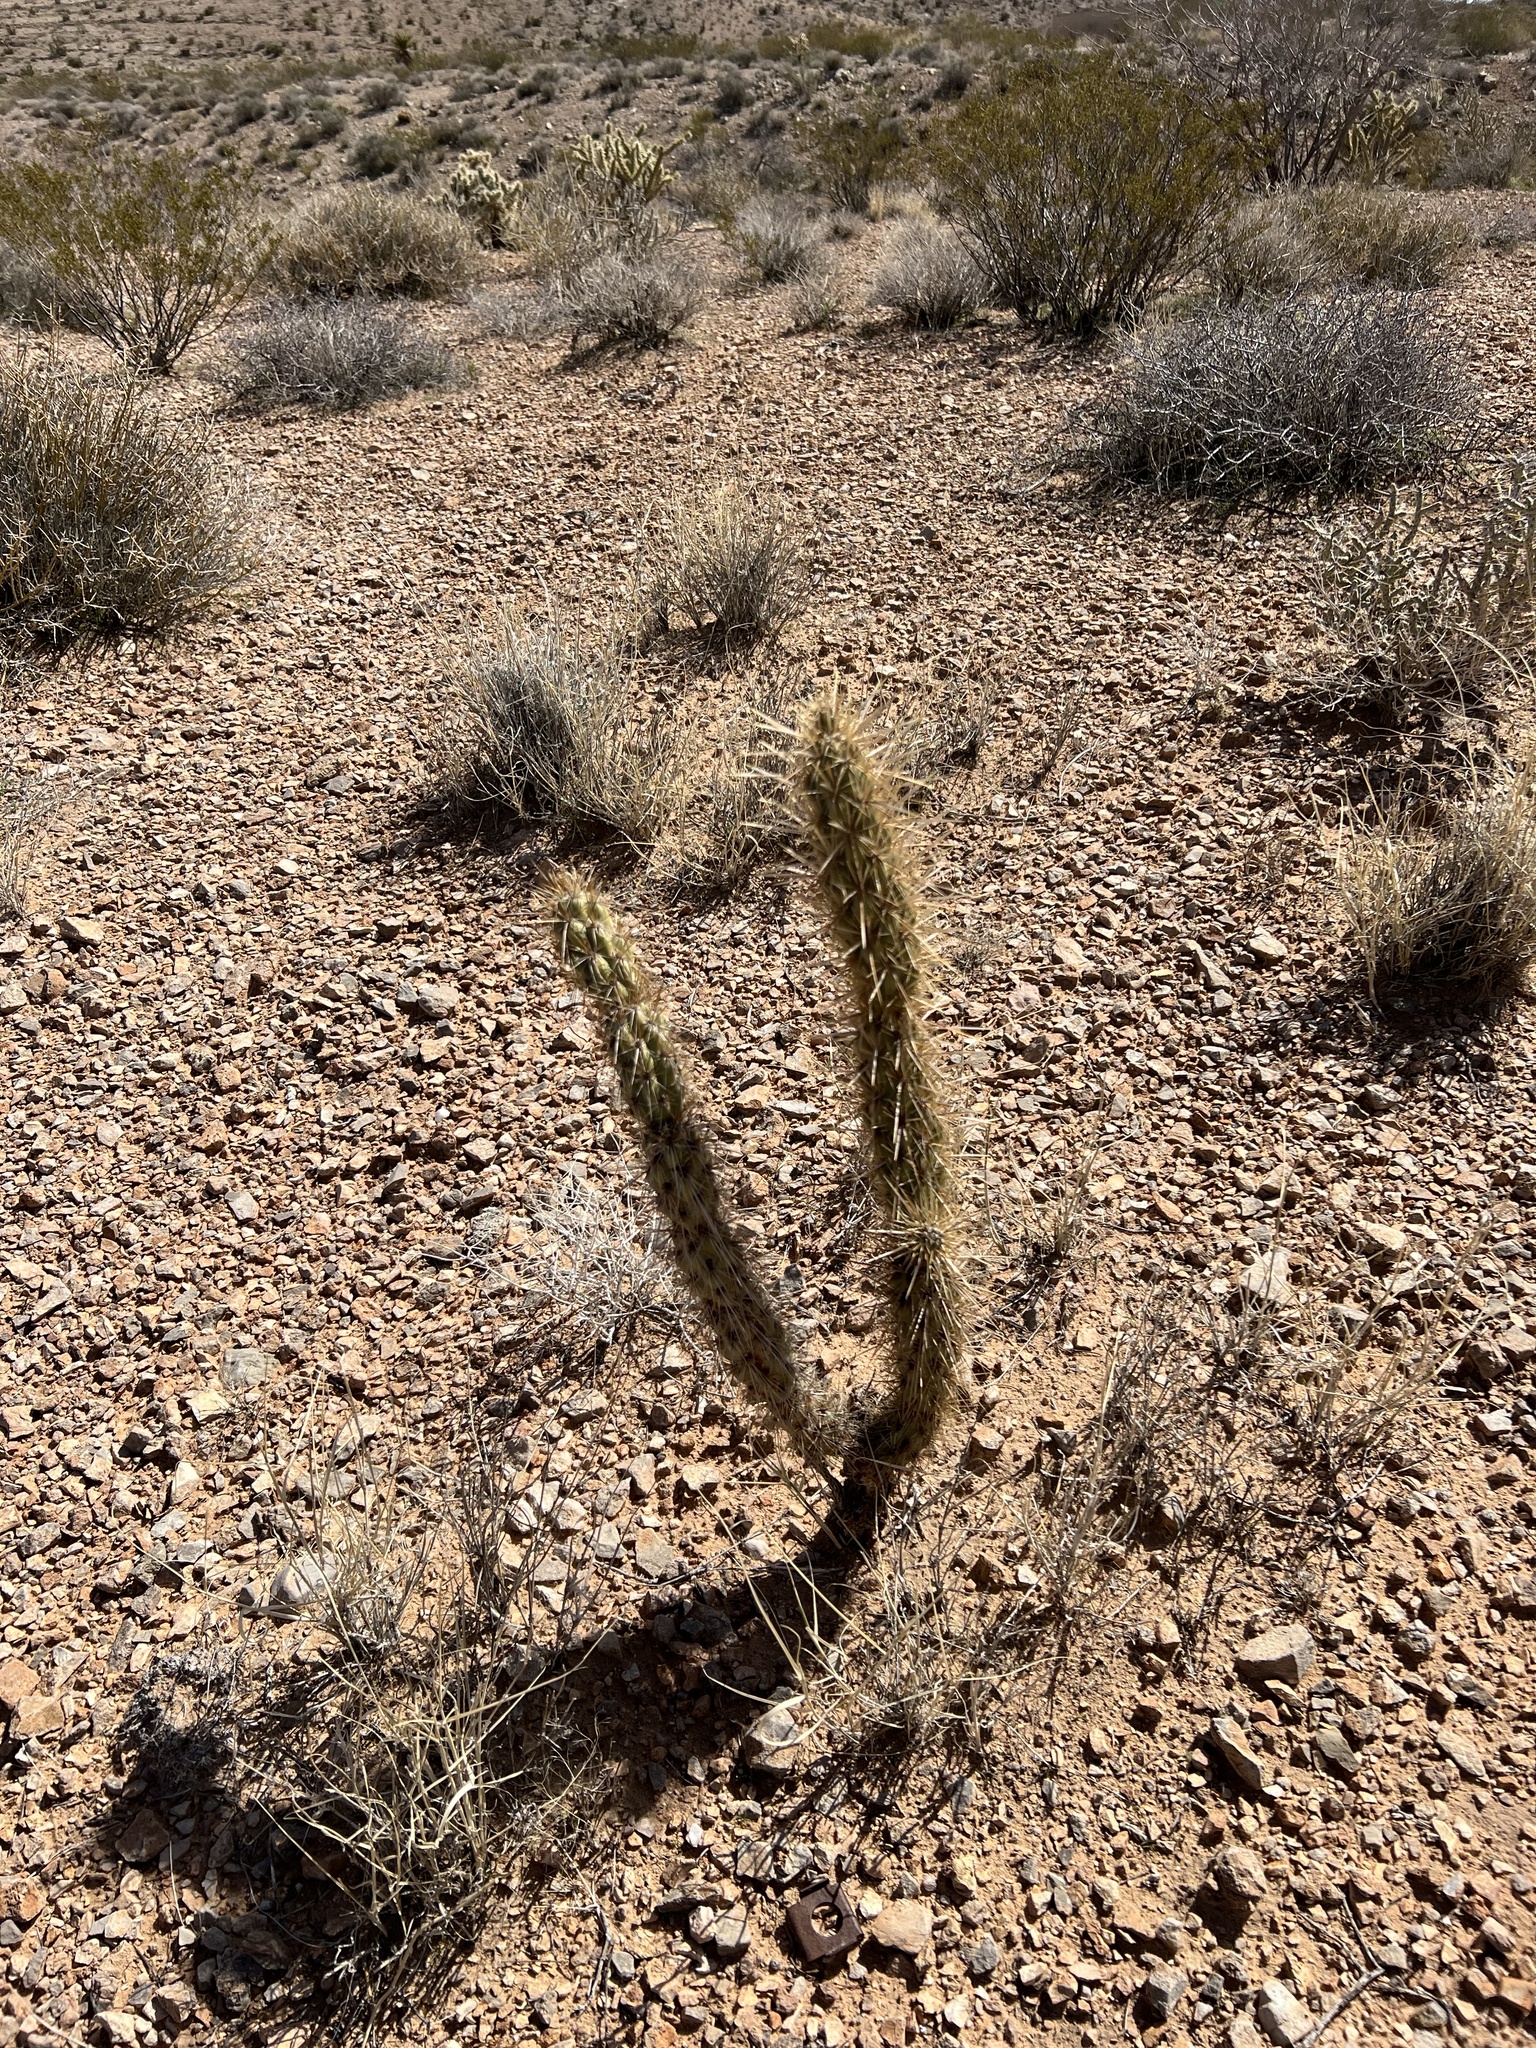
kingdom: Plantae
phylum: Tracheophyta
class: Magnoliopsida
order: Caryophyllales
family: Cactaceae
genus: Cylindropuntia
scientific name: Cylindropuntia acanthocarpa
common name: Buckhorn cholla
